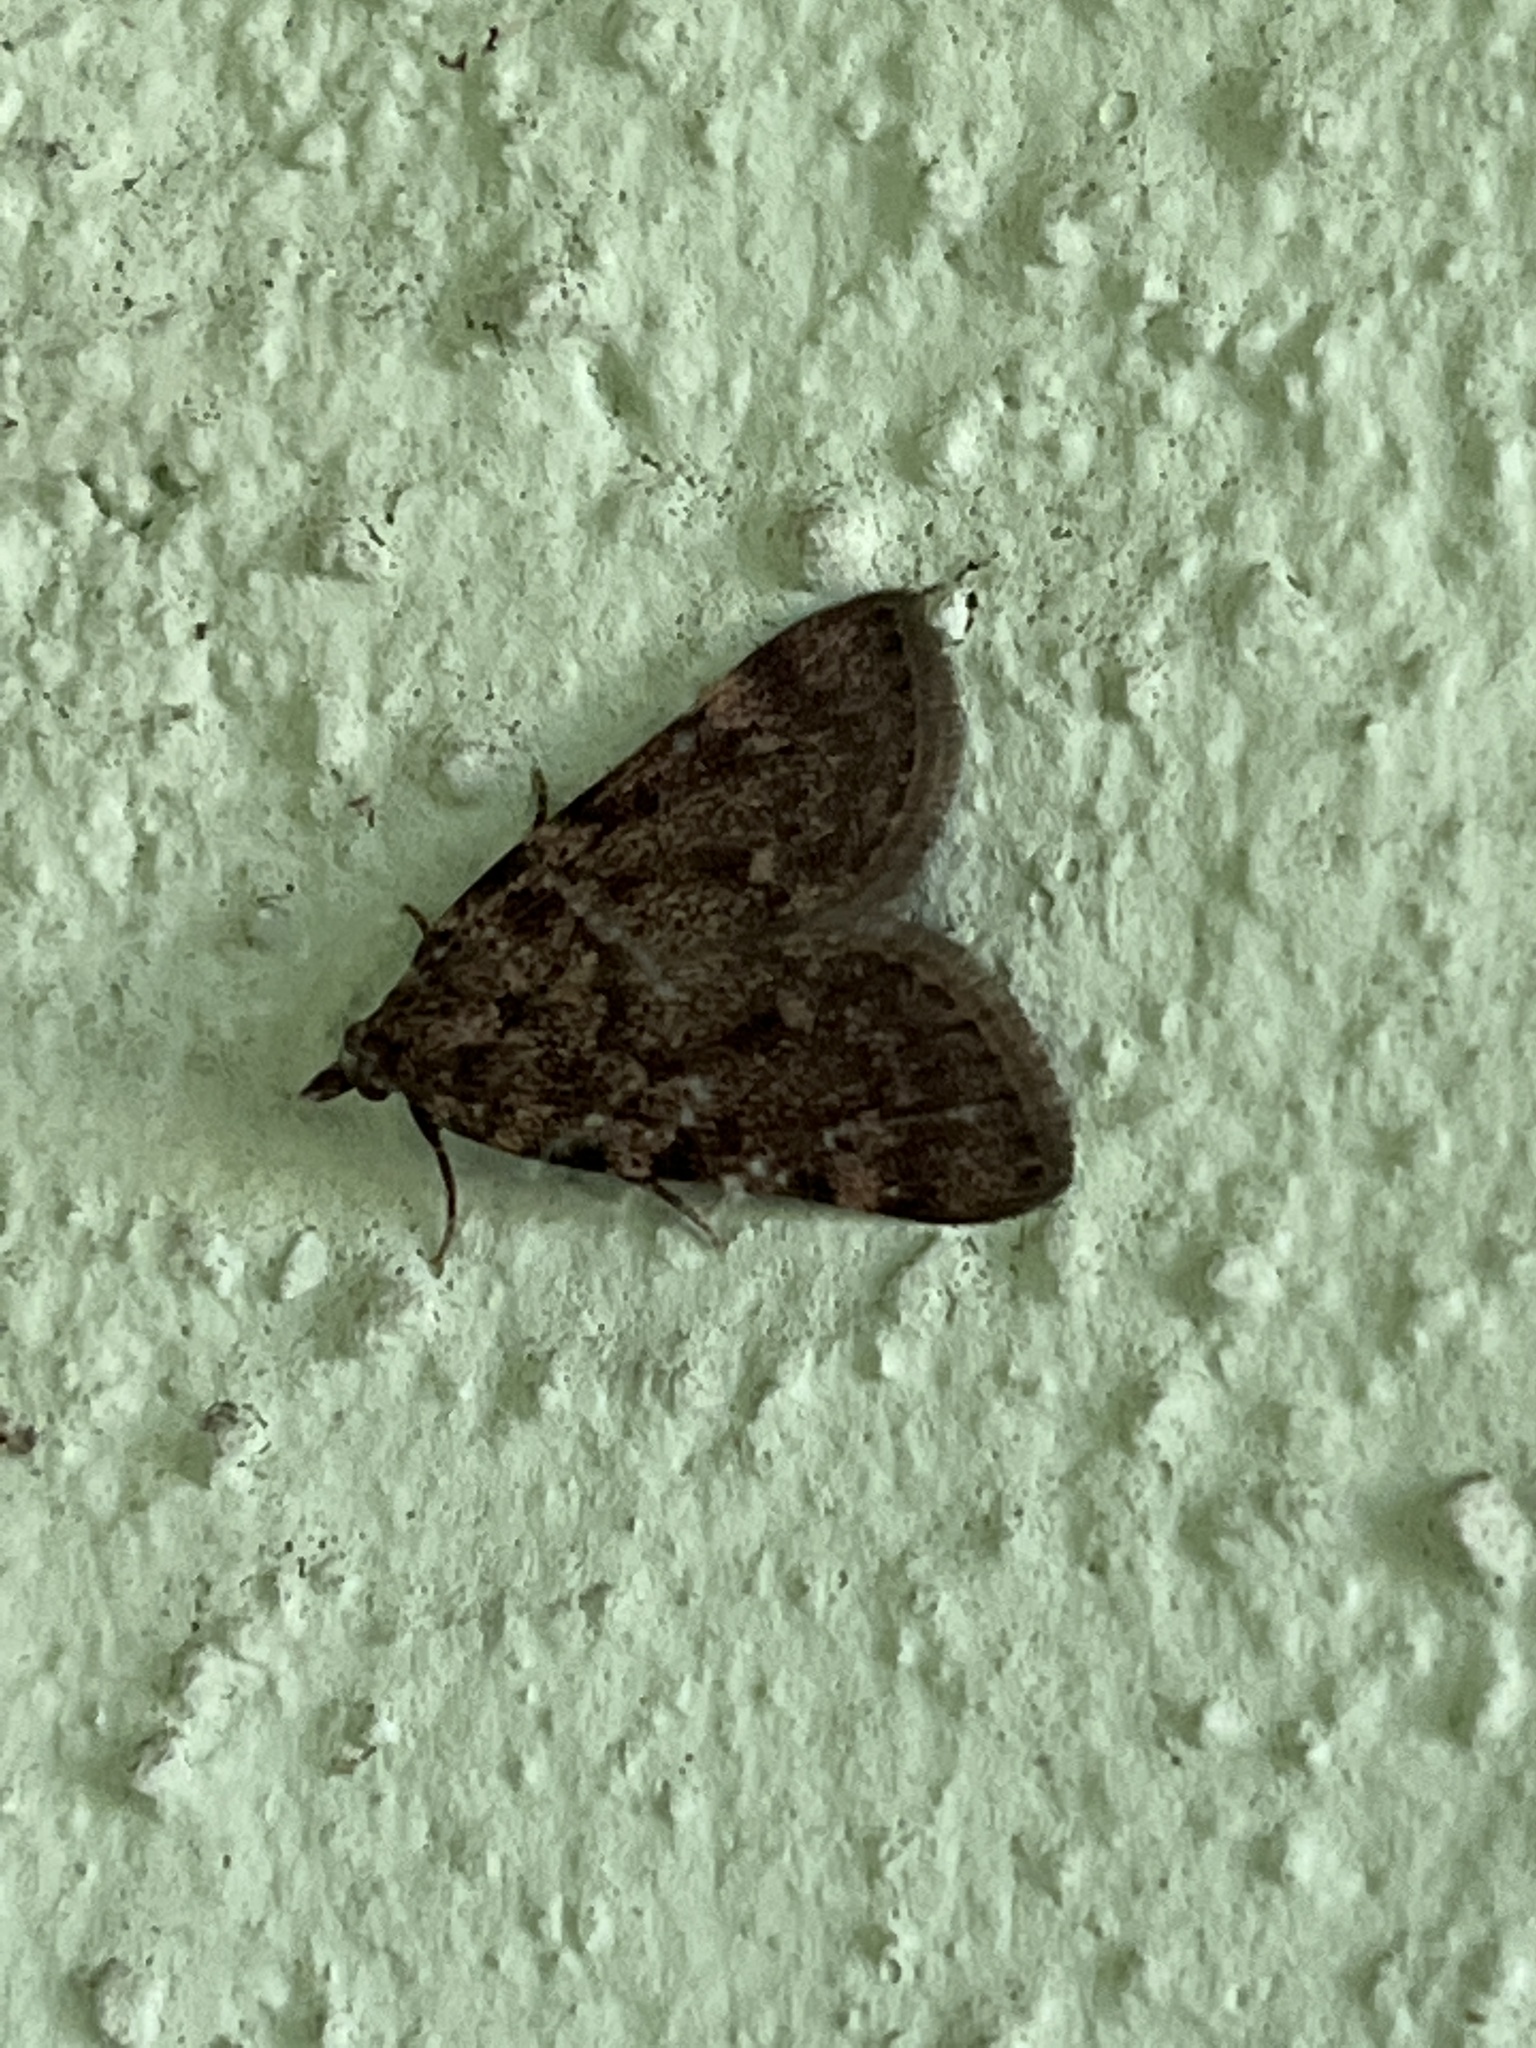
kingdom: Animalia
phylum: Arthropoda
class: Insecta
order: Lepidoptera
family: Pyralidae
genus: Aglossa
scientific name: Aglossa pinguinalis
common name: Large tabby
